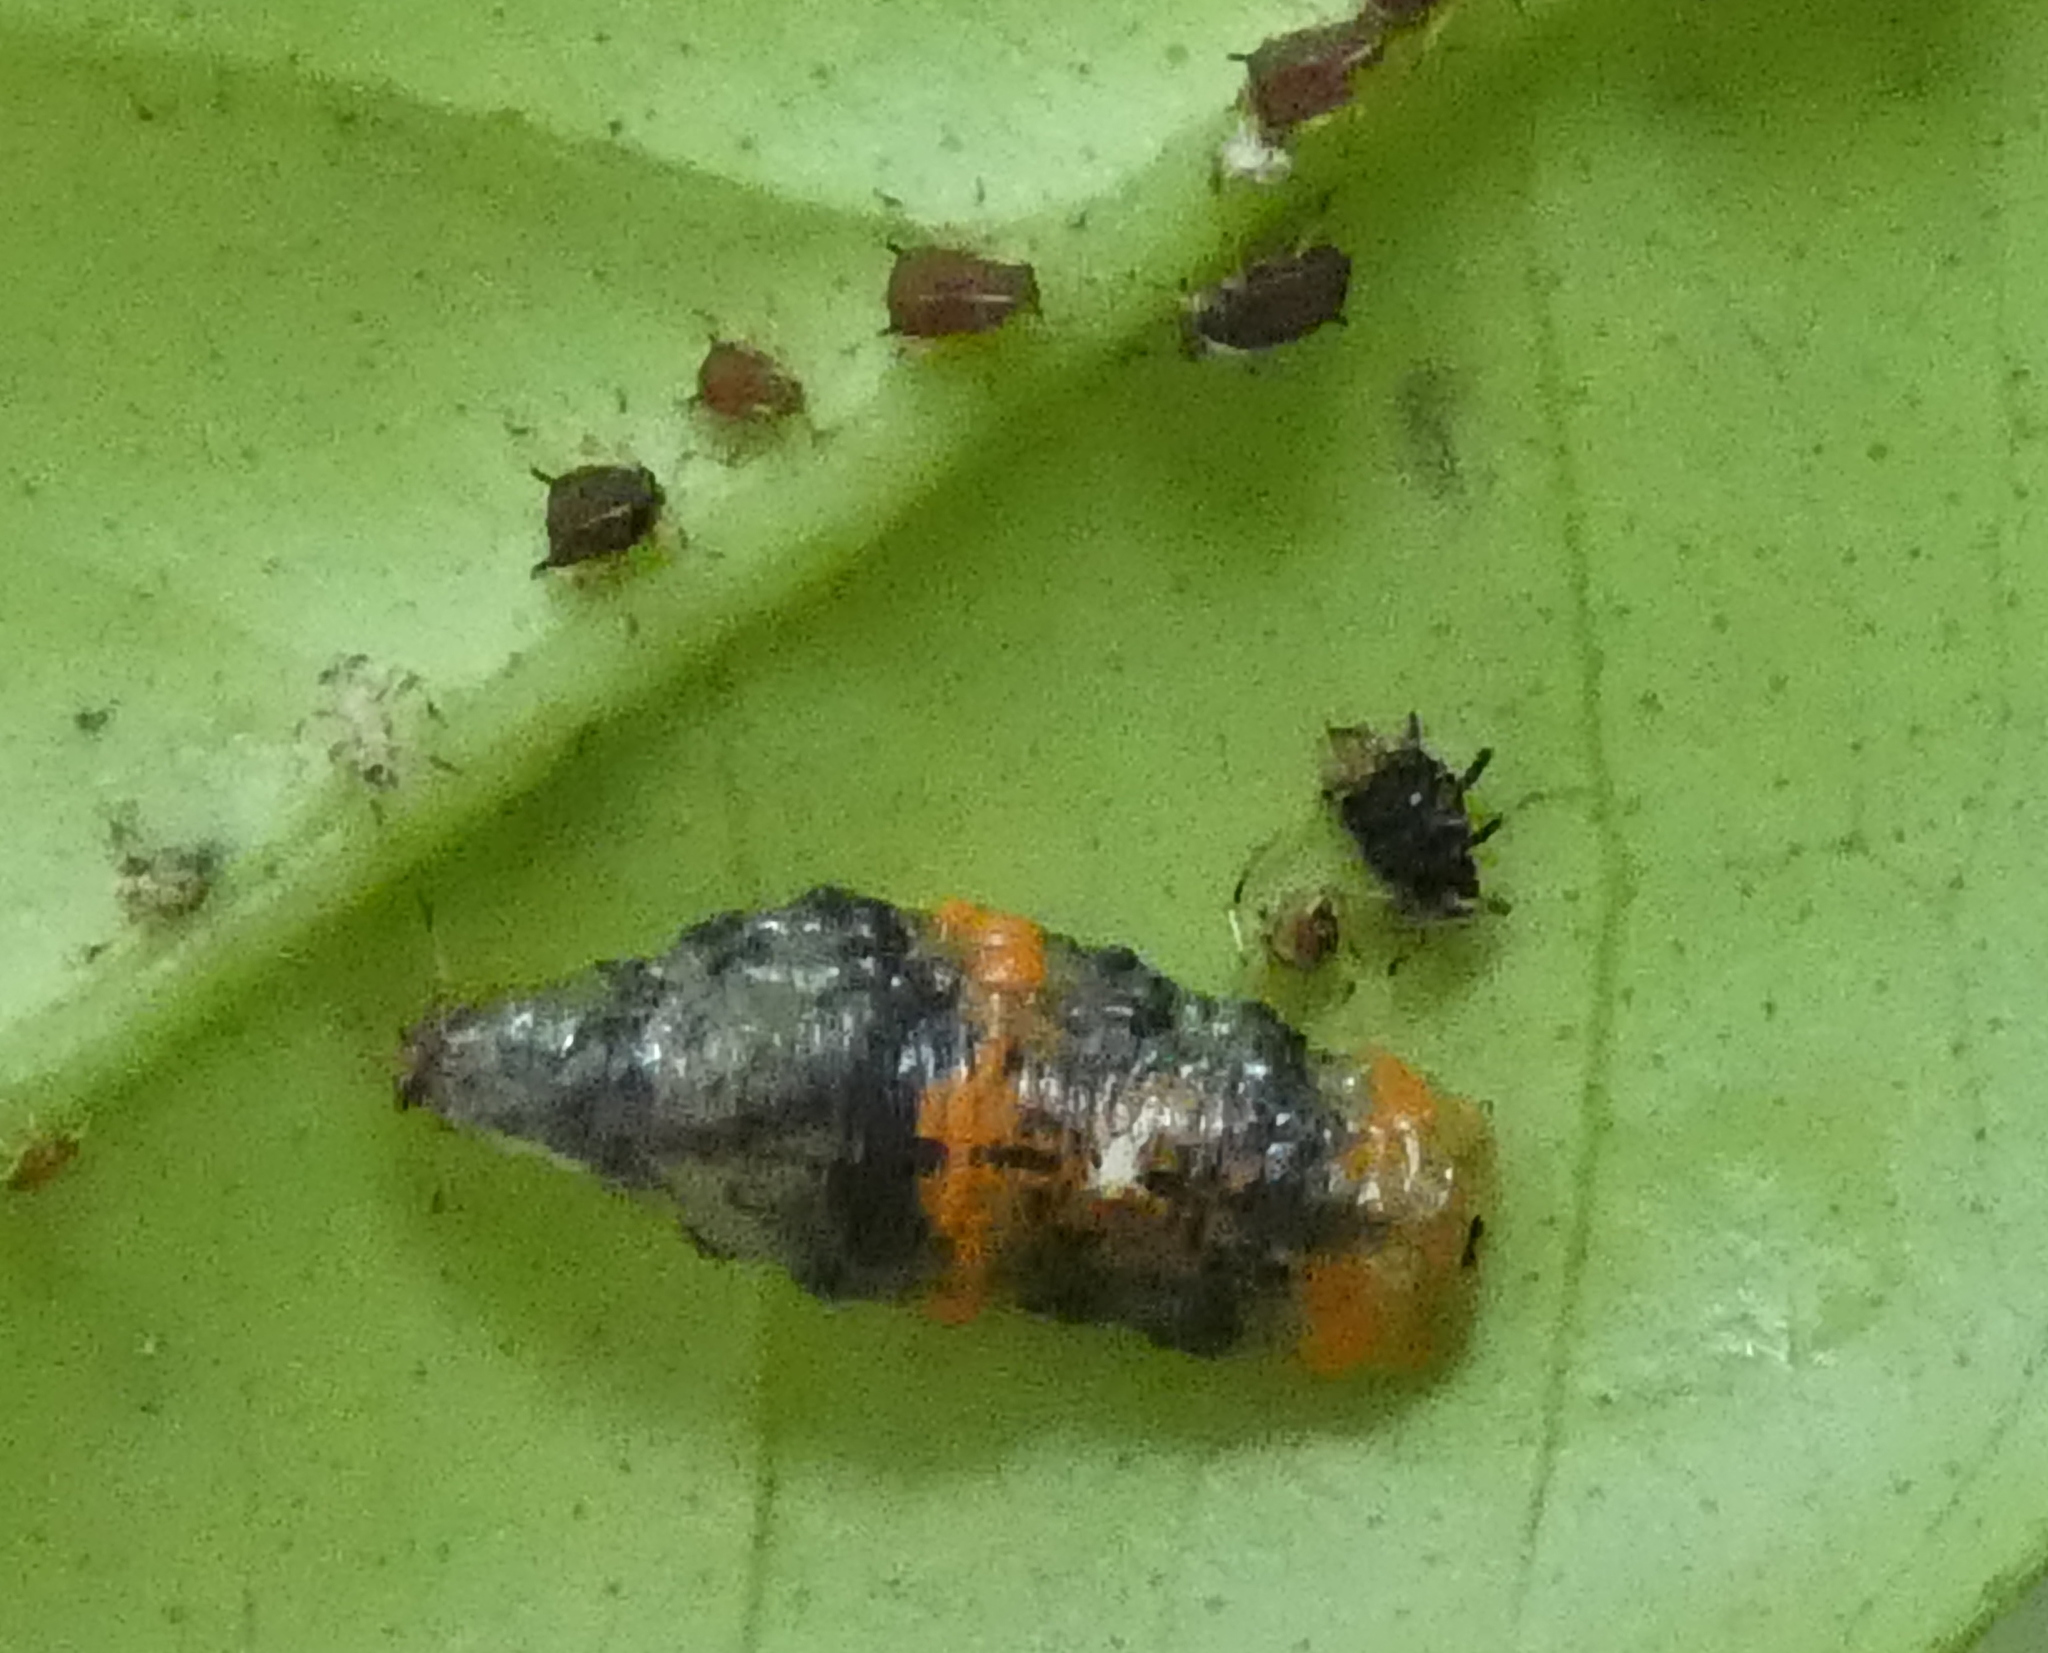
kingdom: Animalia
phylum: Arthropoda
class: Insecta
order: Diptera
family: Syrphidae
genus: Ocyptamus
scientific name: Ocyptamus gastrostactus
